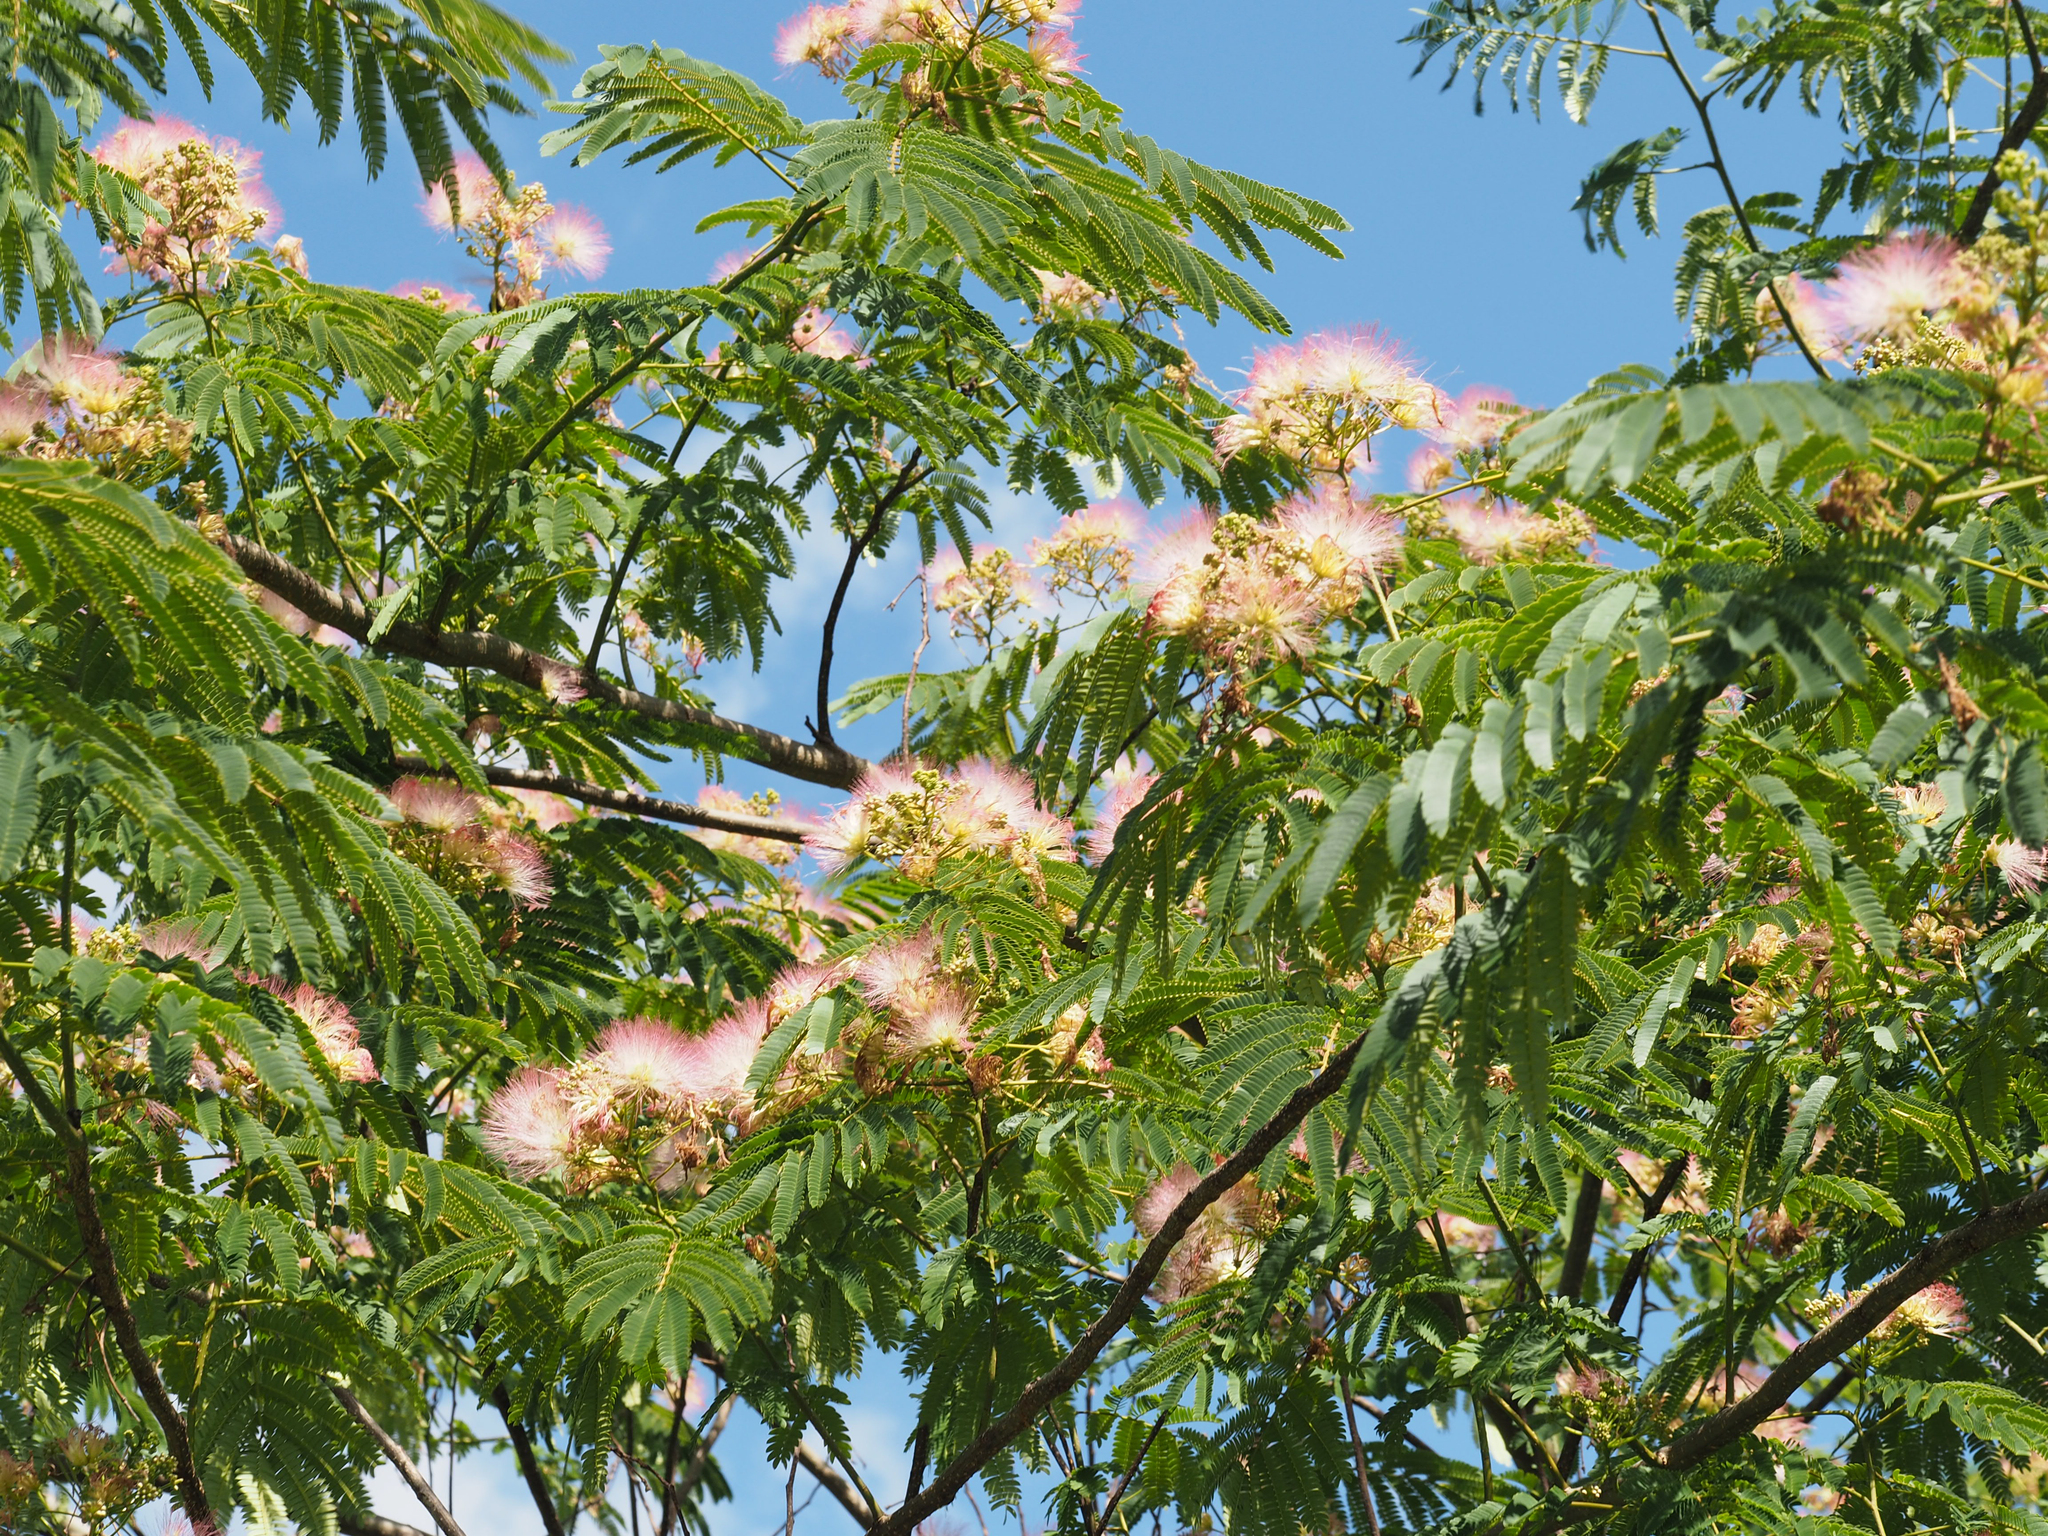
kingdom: Plantae
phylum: Tracheophyta
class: Magnoliopsida
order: Fabales
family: Fabaceae
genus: Albizia
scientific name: Albizia julibrissin
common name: Silktree
